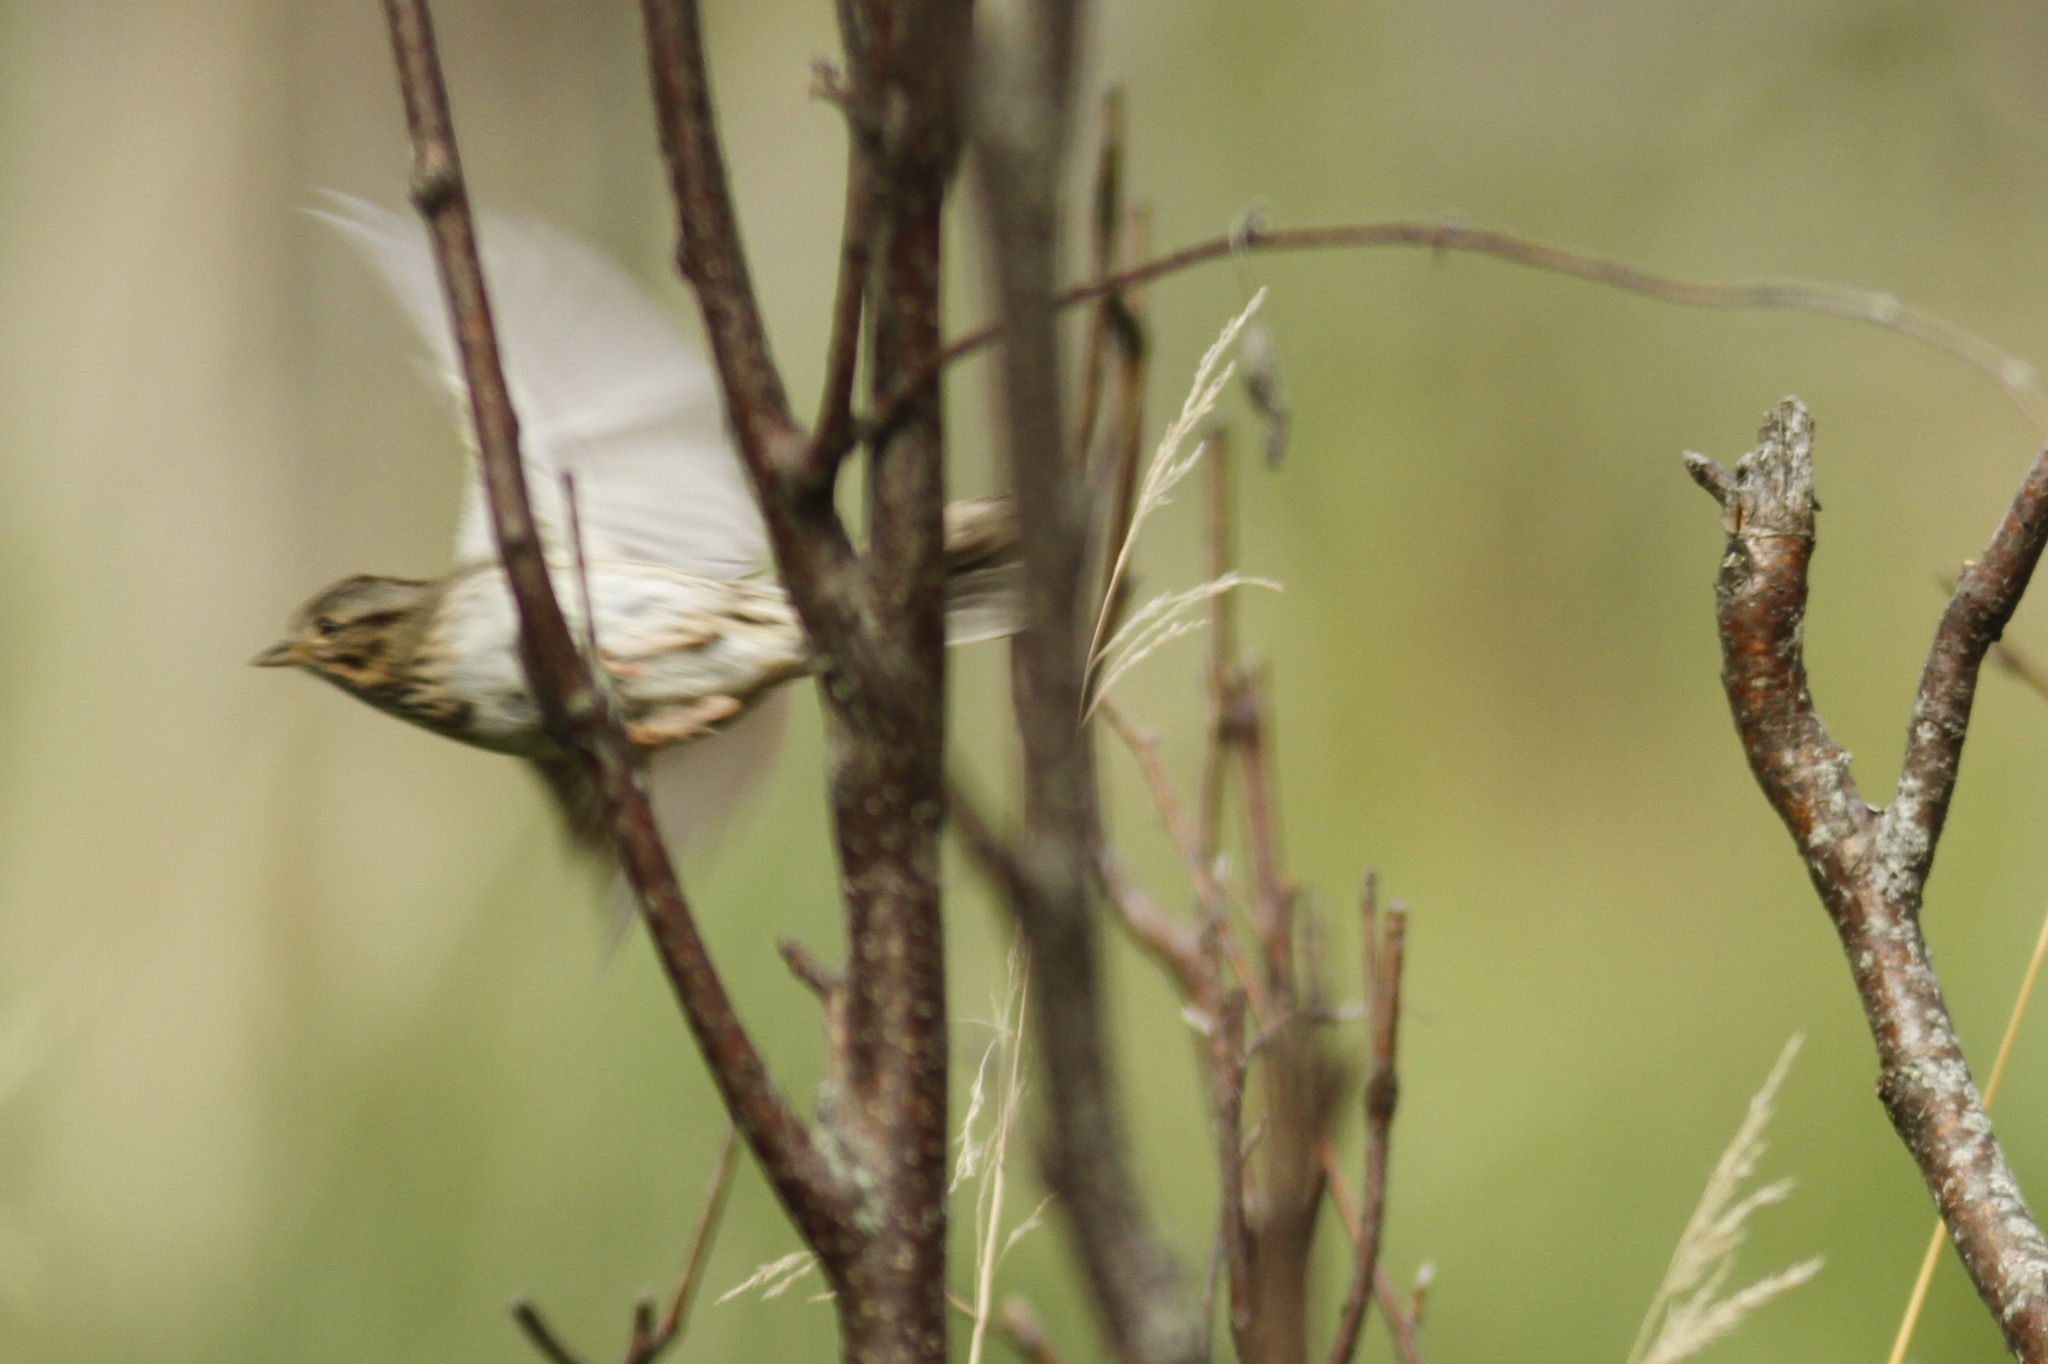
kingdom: Animalia
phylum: Chordata
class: Aves
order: Passeriformes
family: Passerellidae
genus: Melospiza
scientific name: Melospiza lincolnii
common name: Lincoln's sparrow
